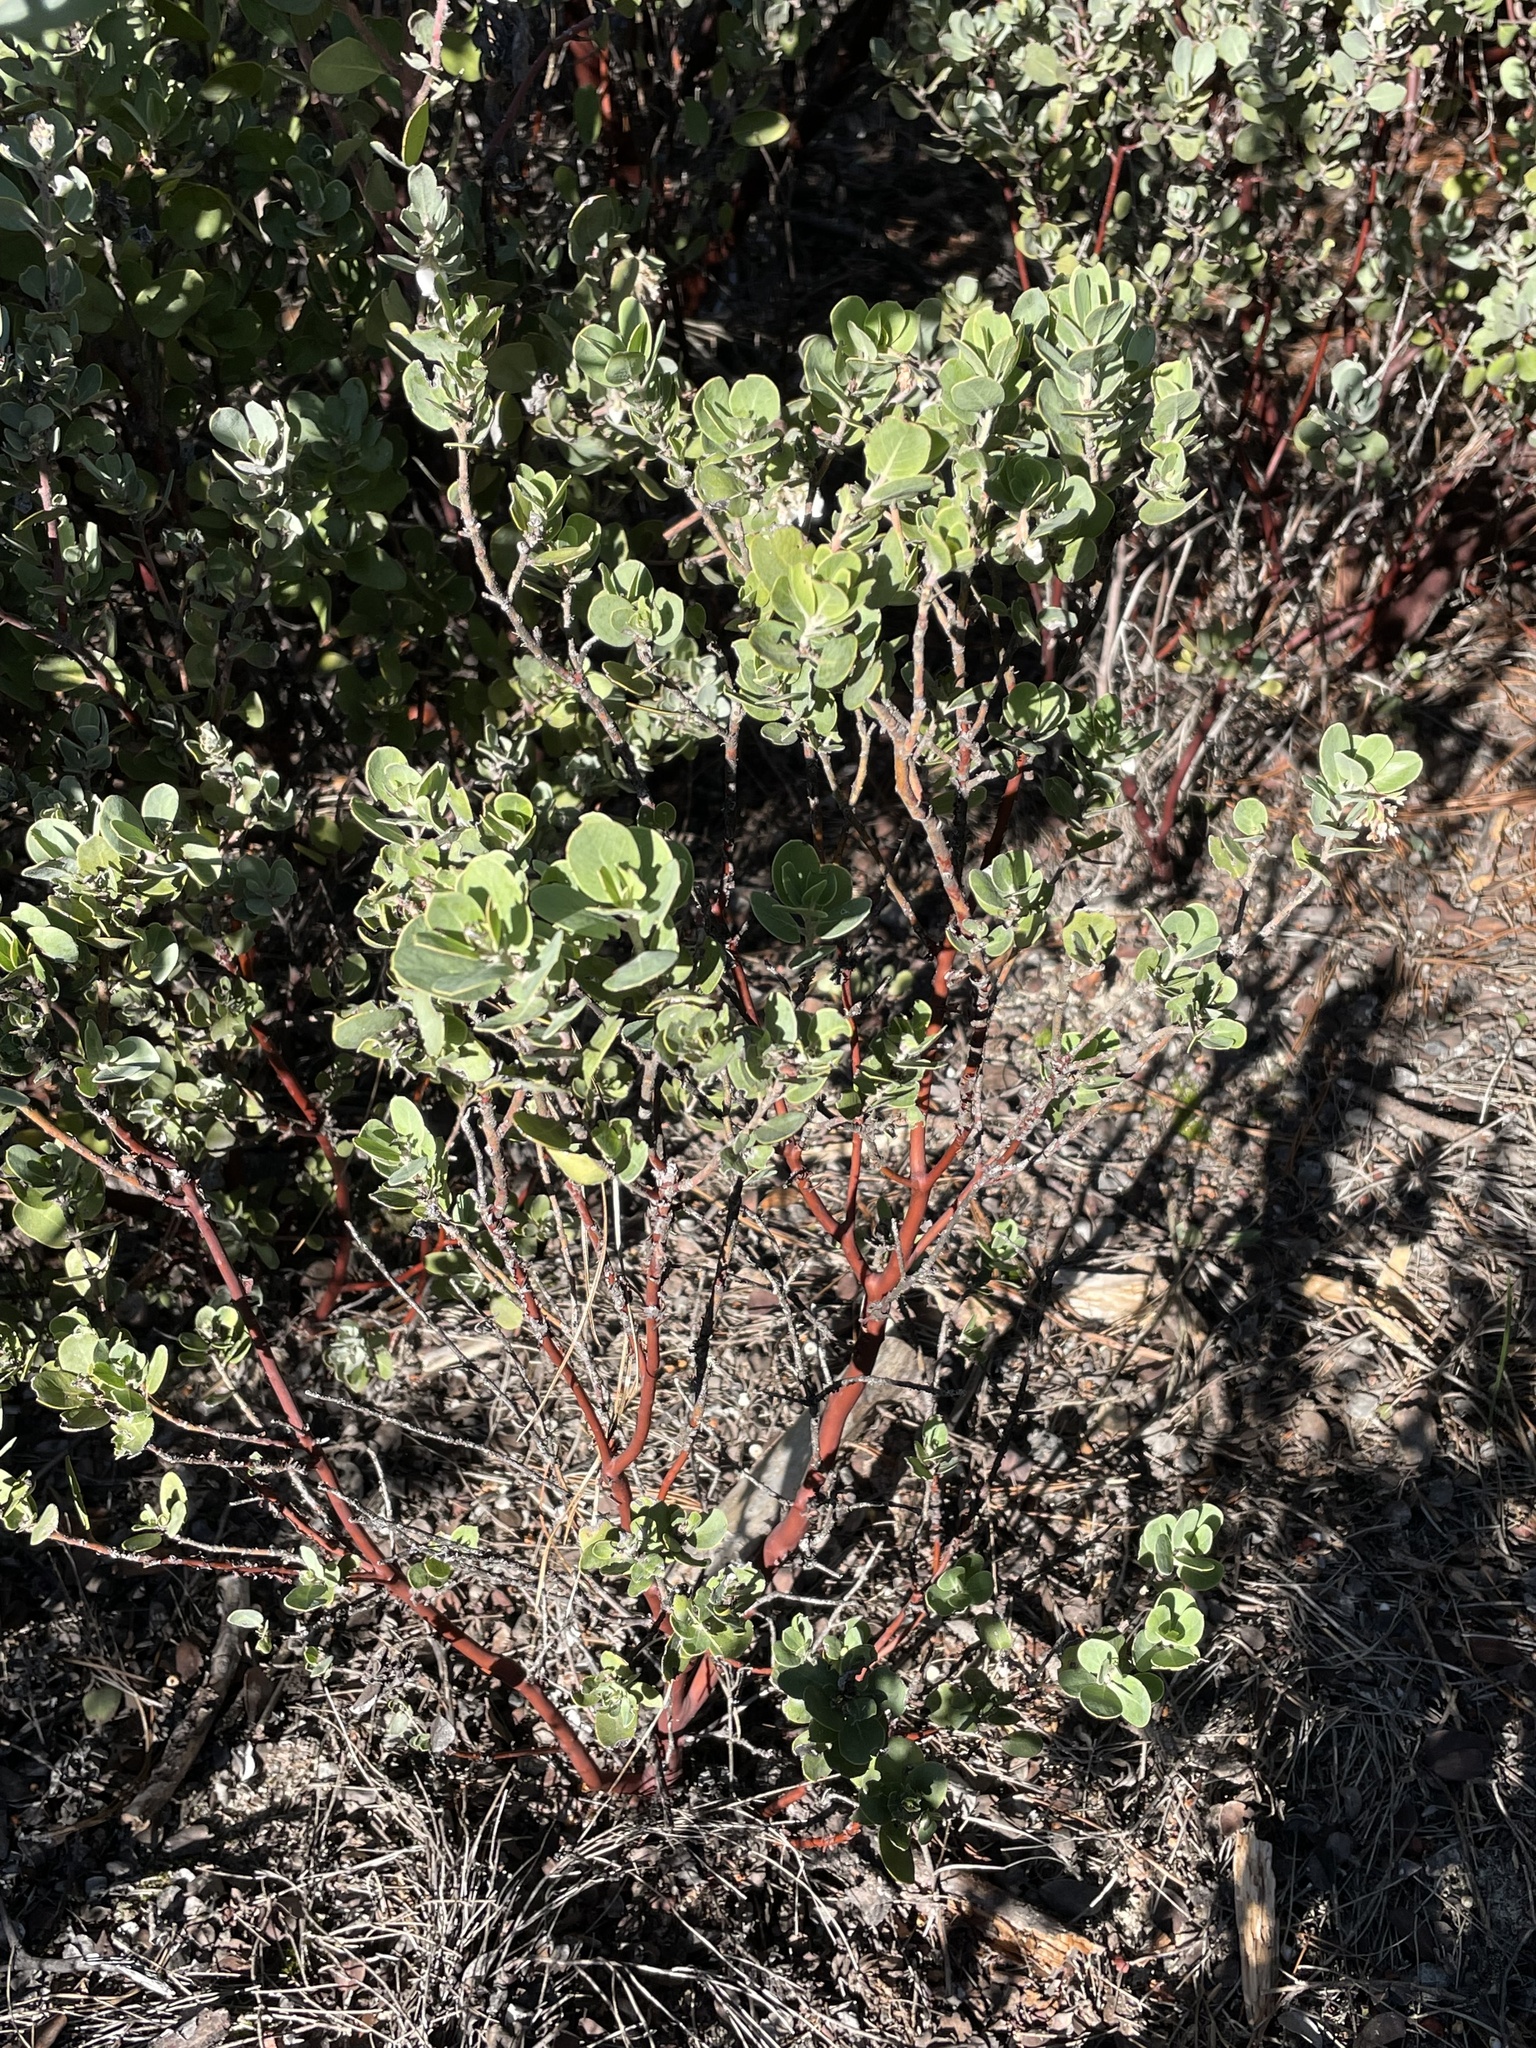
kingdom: Plantae
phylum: Tracheophyta
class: Magnoliopsida
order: Ericales
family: Ericaceae
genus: Arctostaphylos
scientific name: Arctostaphylos crustacea
